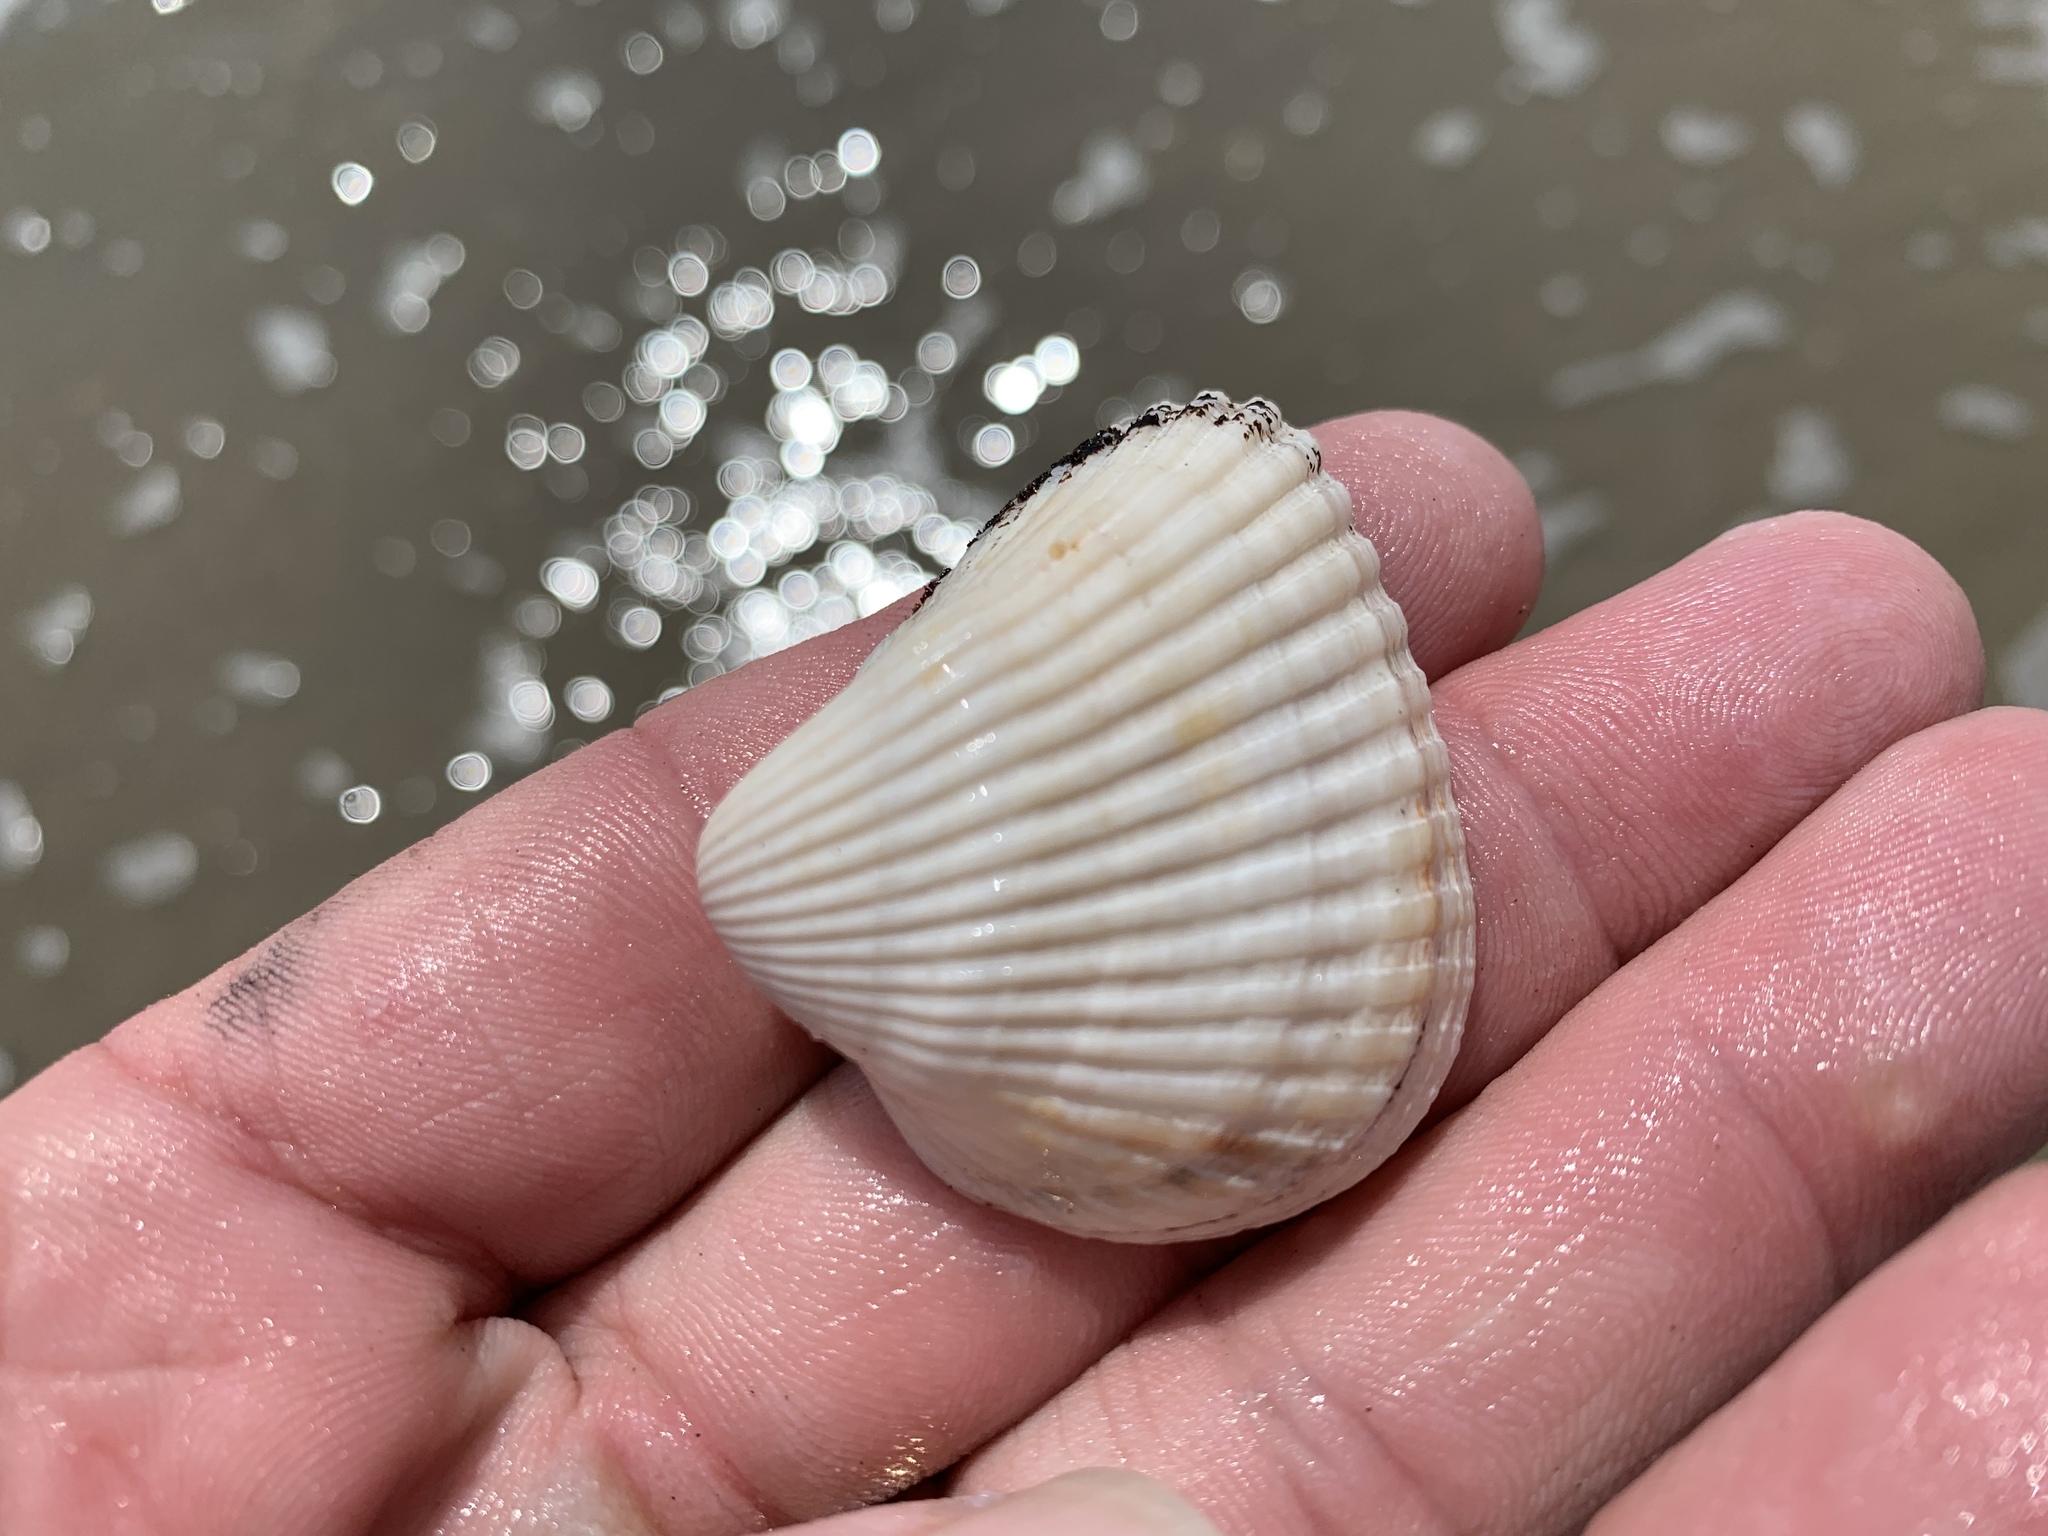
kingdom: Animalia
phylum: Mollusca
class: Bivalvia
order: Arcida
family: Noetiidae
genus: Noetia
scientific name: Noetia ponderosa
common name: Ponderous ark
